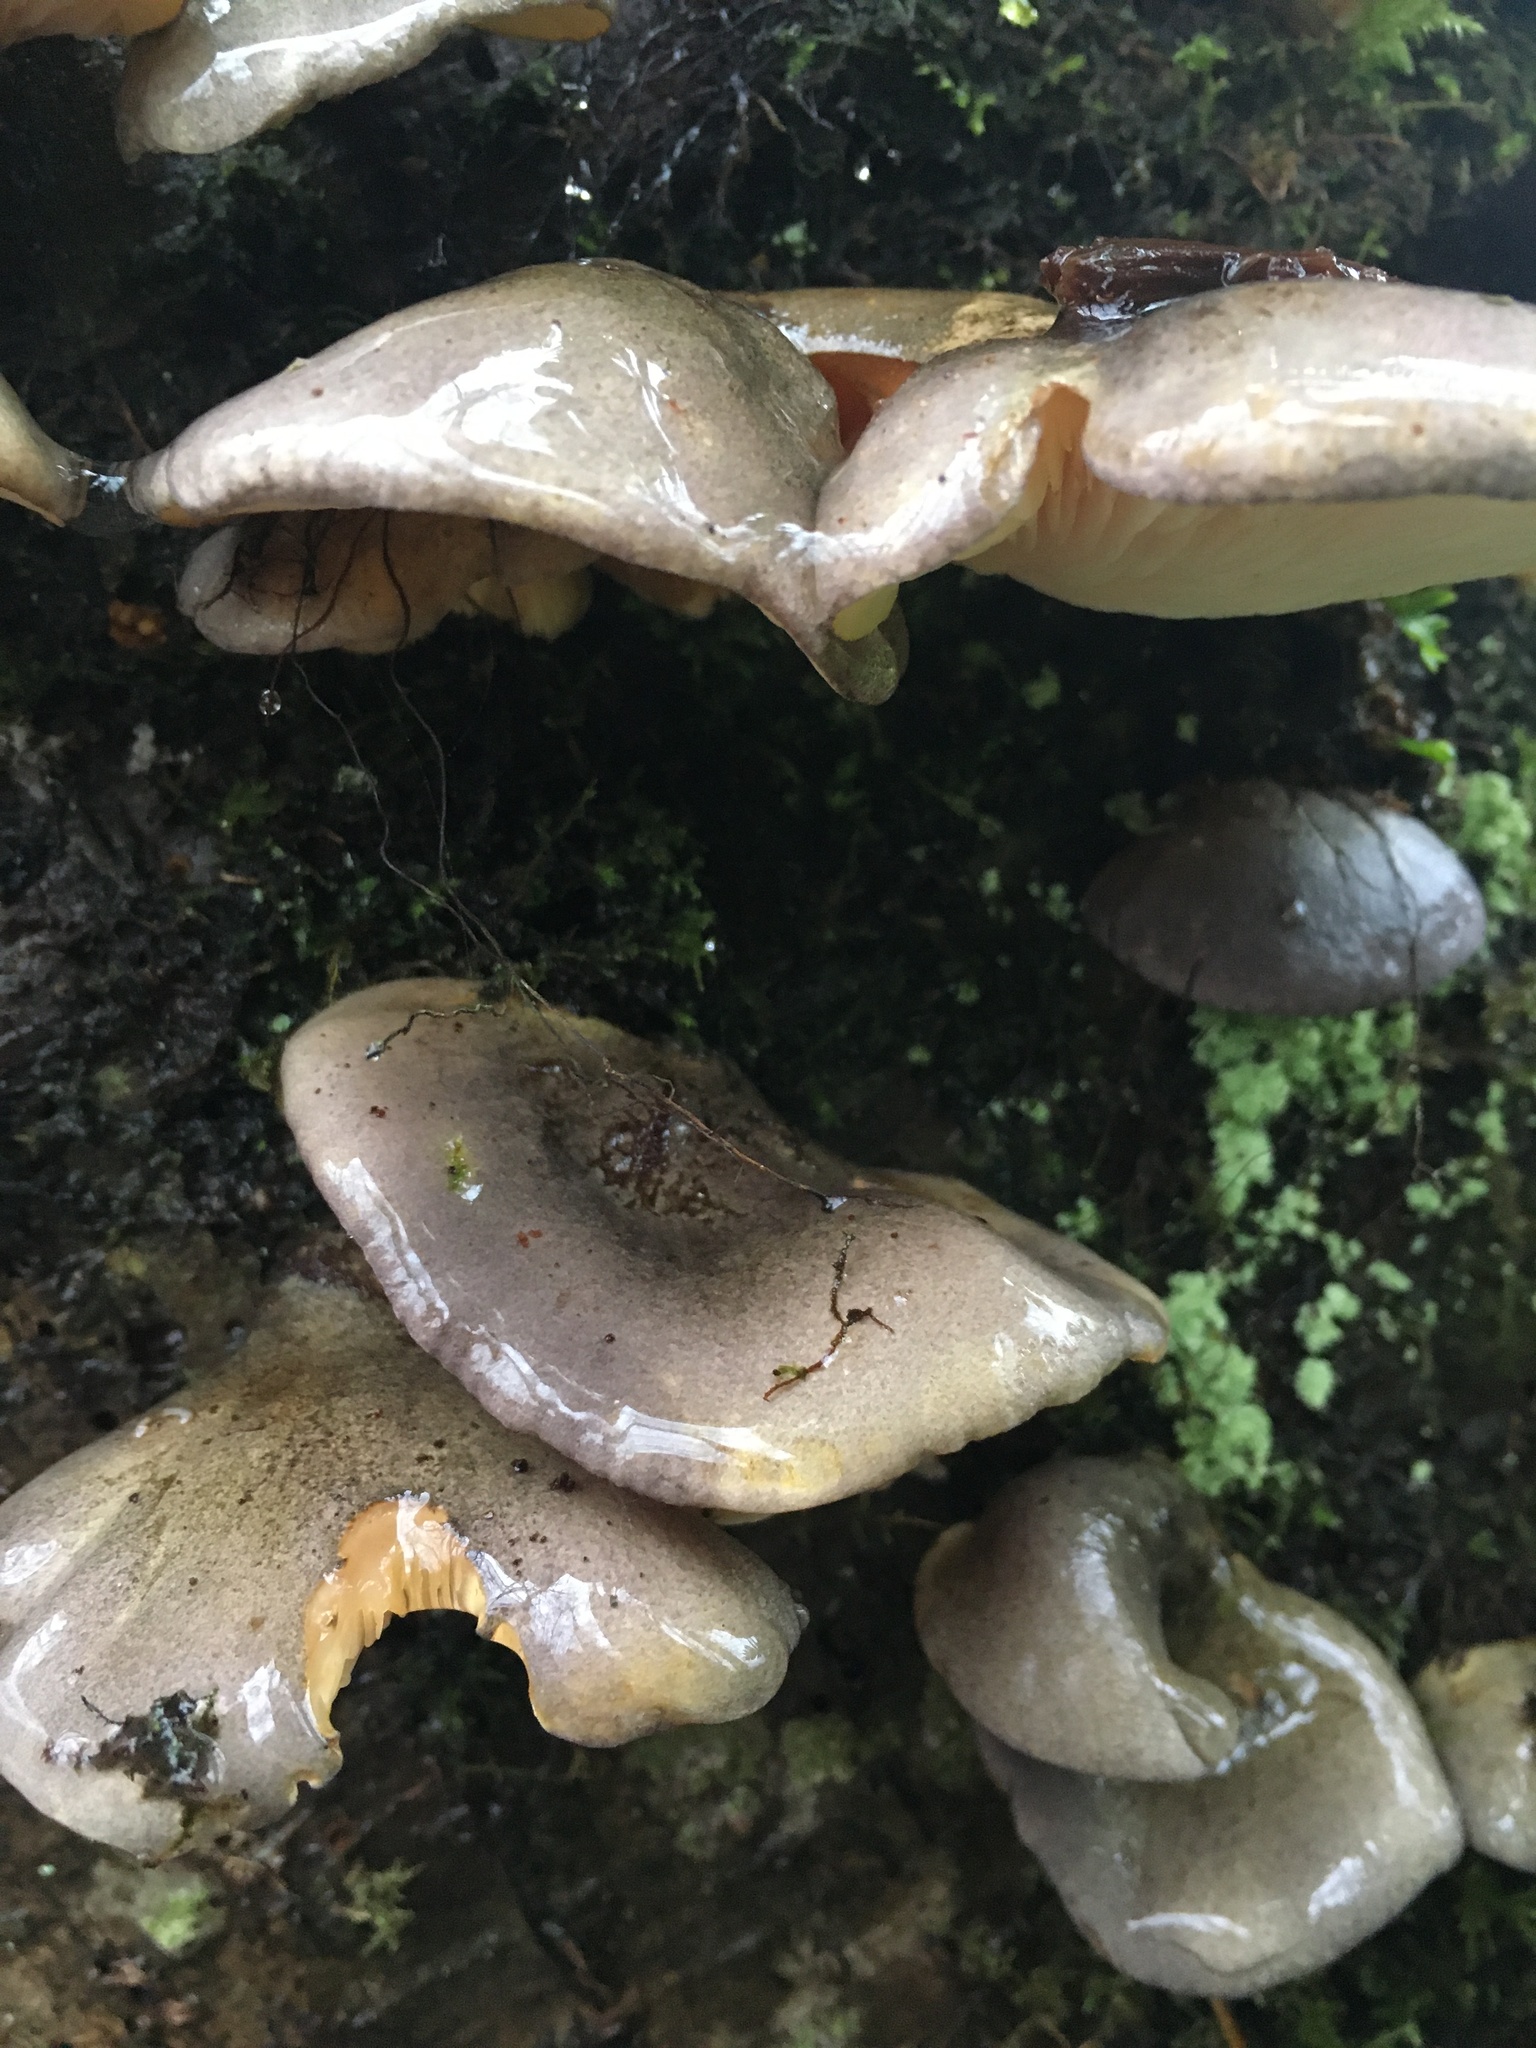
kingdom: Fungi
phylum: Basidiomycota
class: Agaricomycetes
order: Agaricales
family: Sarcomyxaceae
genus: Sarcomyxa
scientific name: Sarcomyxa serotina
